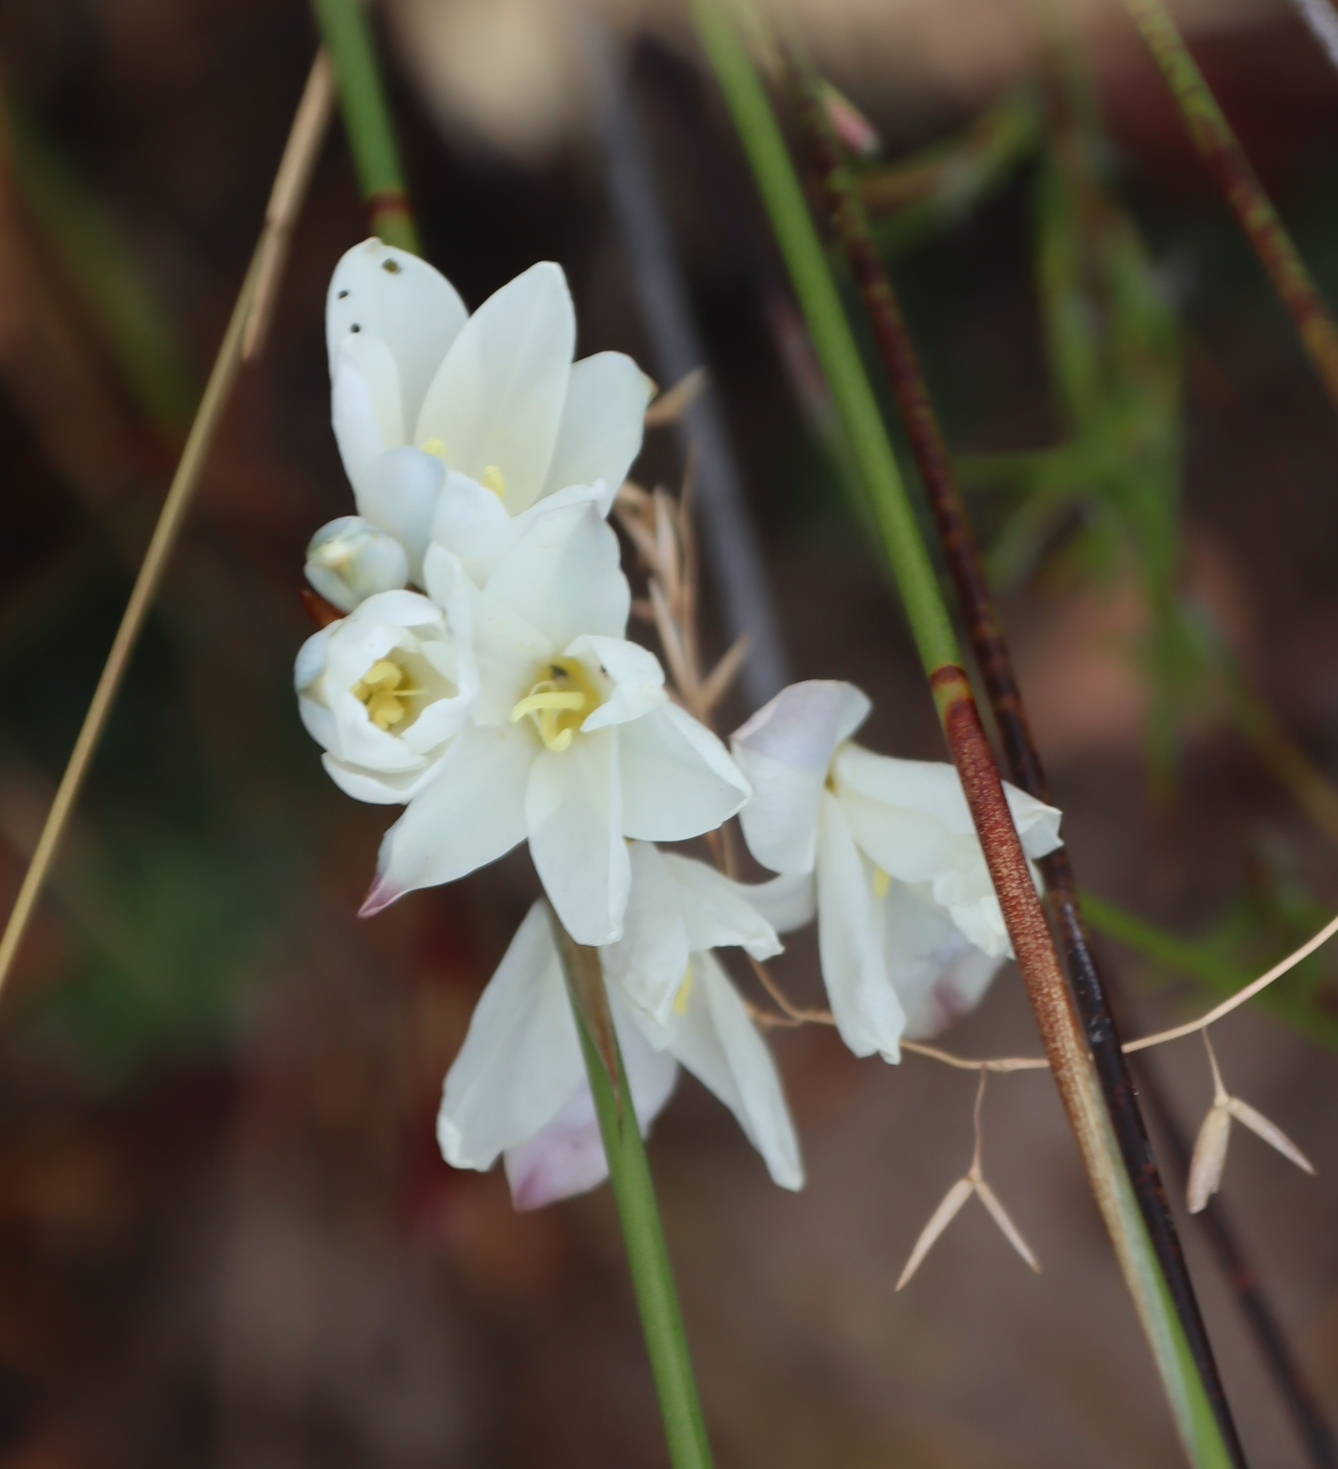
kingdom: Plantae
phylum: Tracheophyta
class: Liliopsida
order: Asparagales
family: Iridaceae
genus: Ixia
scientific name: Ixia polystachya
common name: White-and-yellow-flower cornlily
